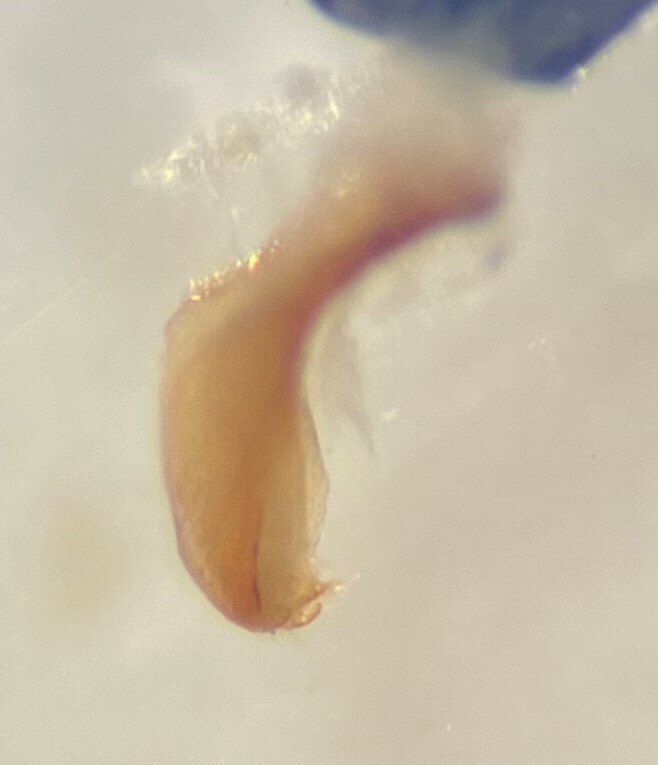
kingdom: Animalia
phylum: Arthropoda
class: Insecta
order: Coleoptera
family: Dytiscidae
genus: Hygrotus
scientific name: Hygrotus suturalis
